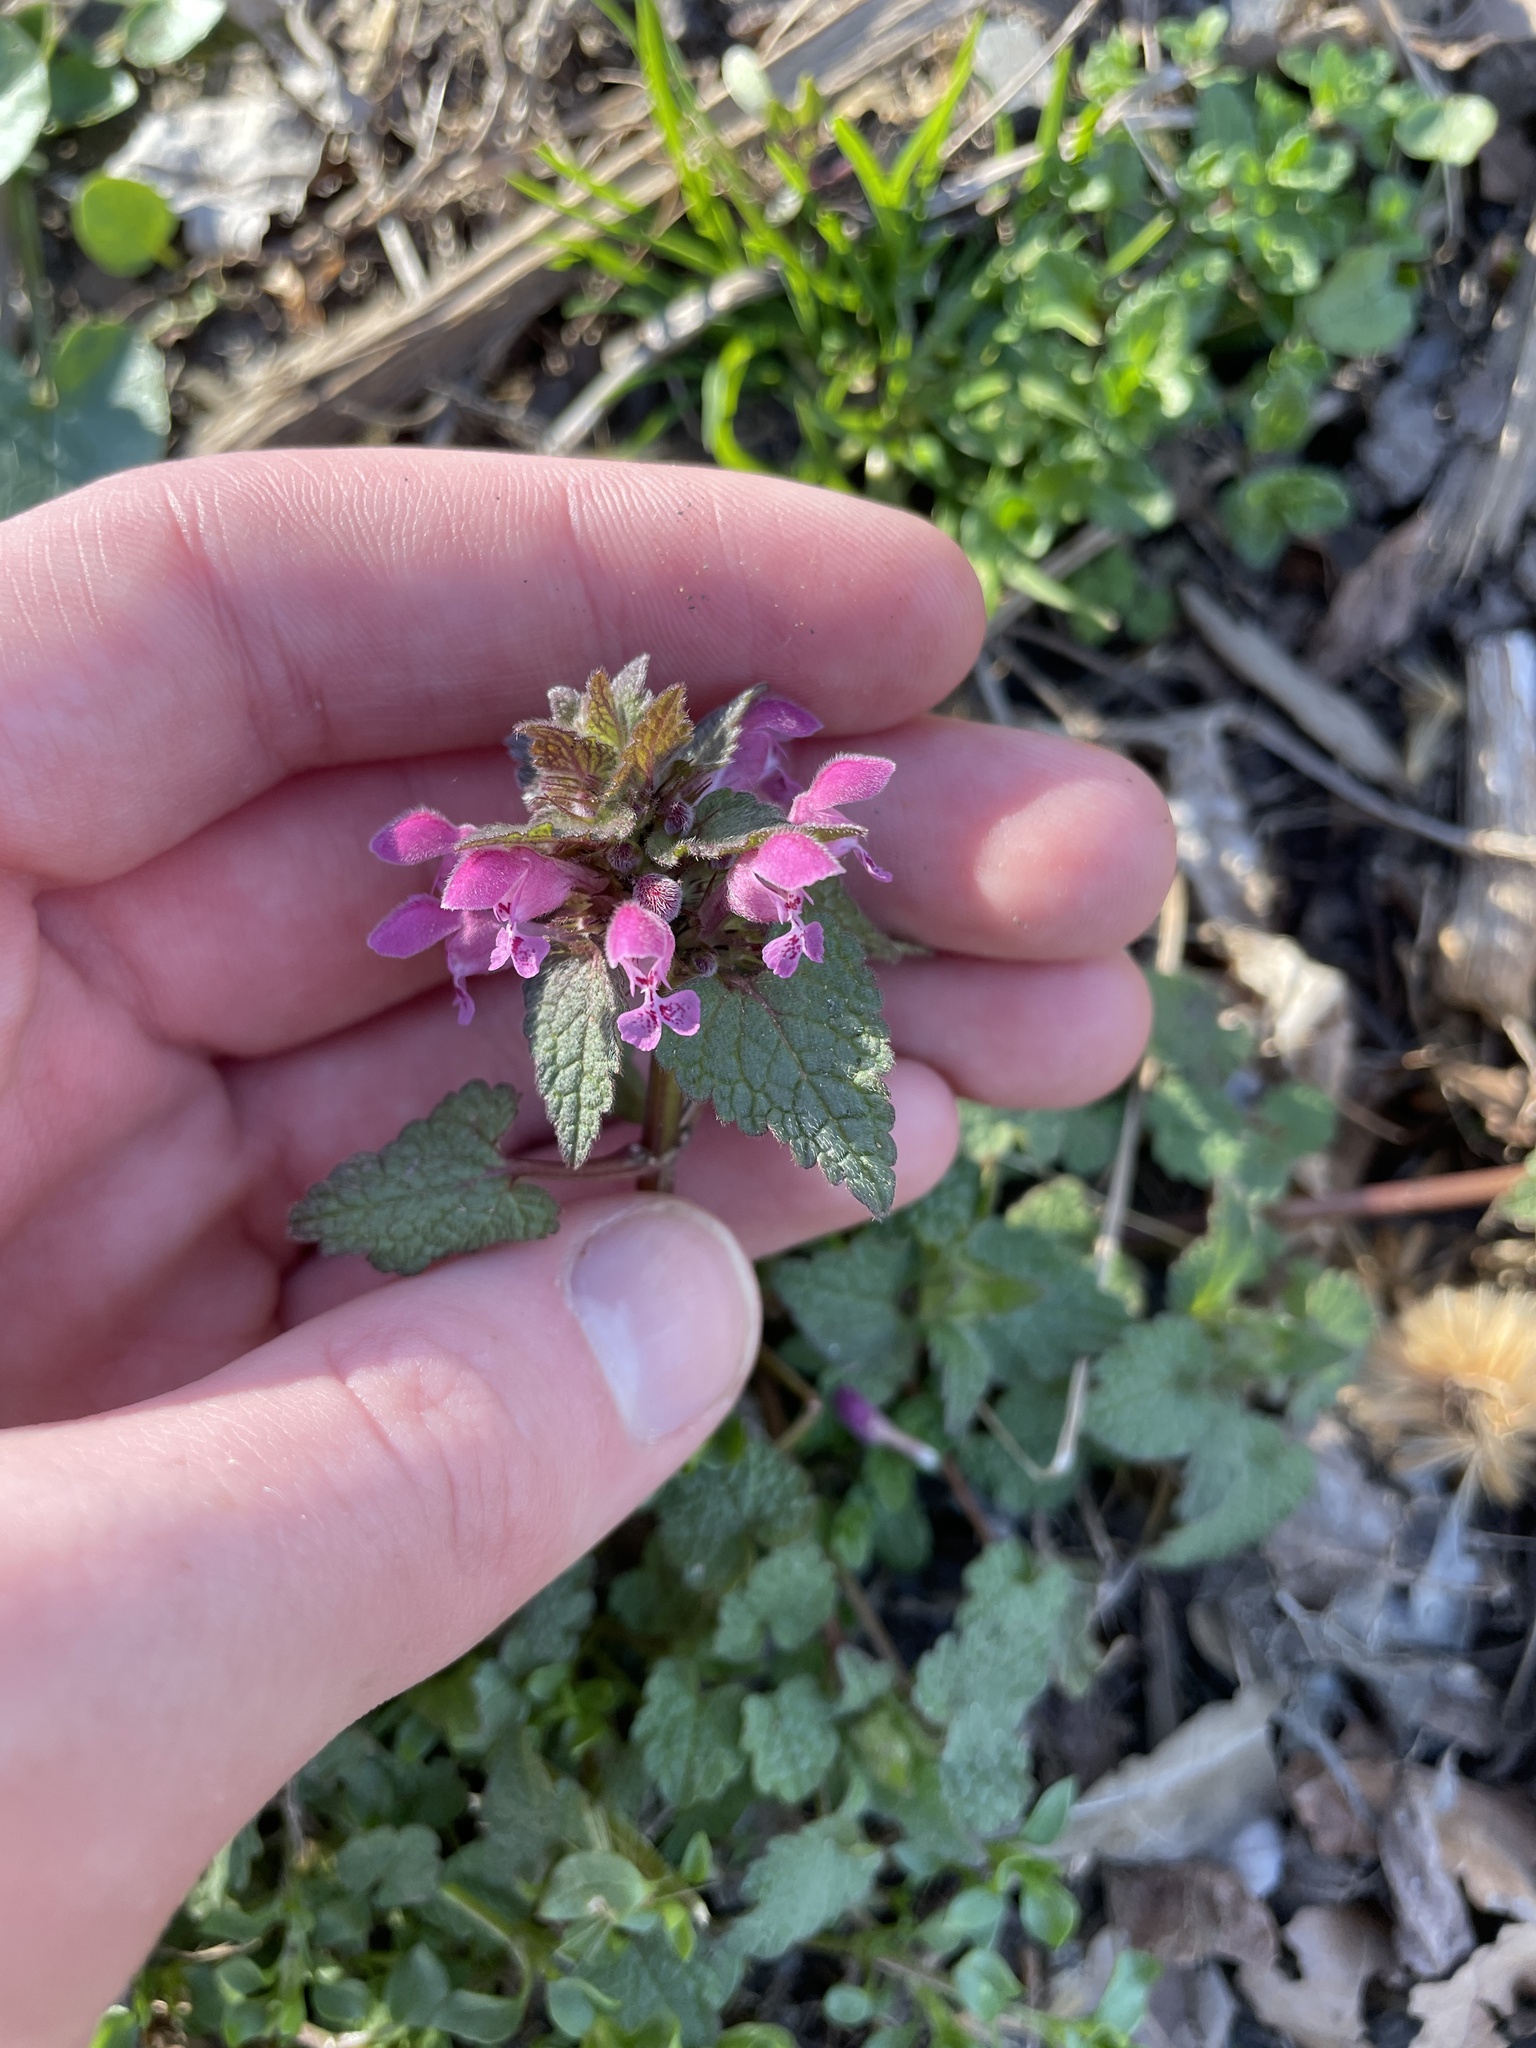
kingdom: Plantae
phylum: Tracheophyta
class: Magnoliopsida
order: Lamiales
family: Lamiaceae
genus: Lamium
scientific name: Lamium purpureum
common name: Red dead-nettle
